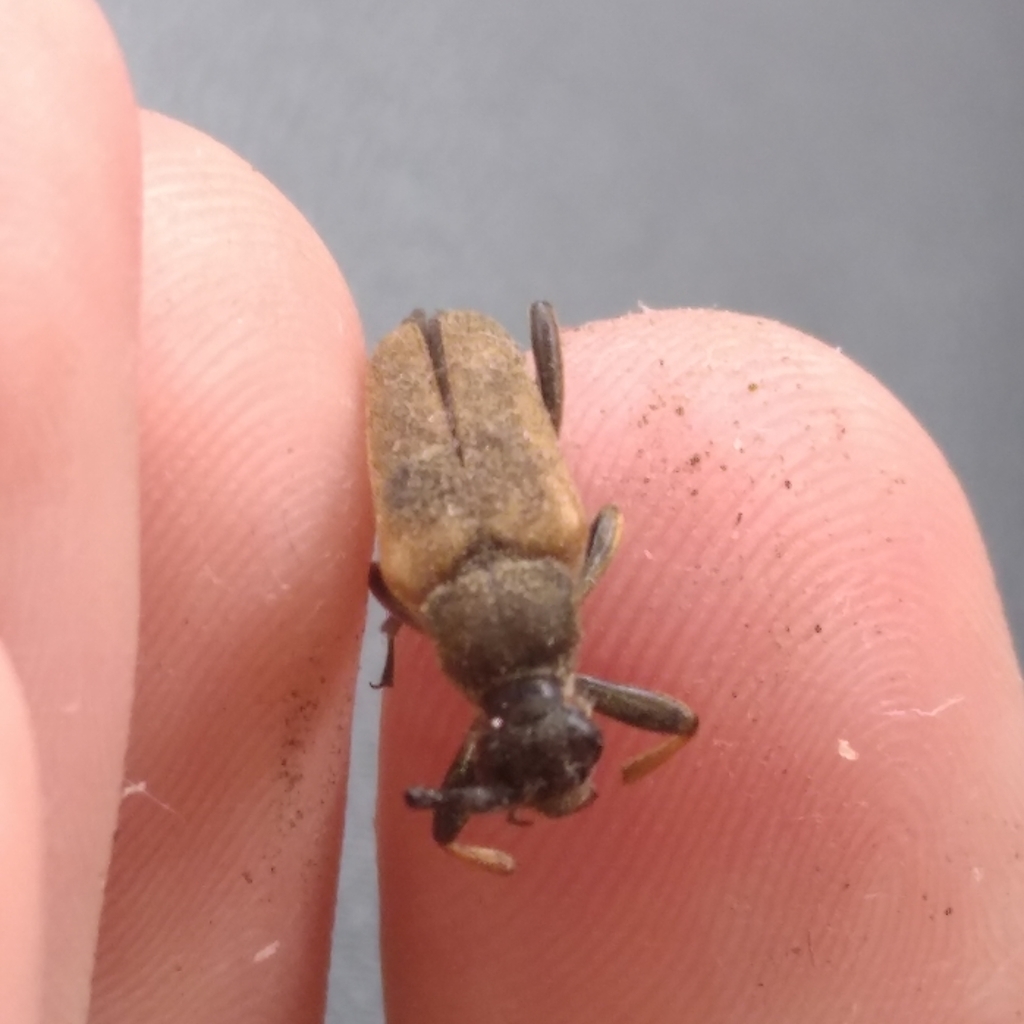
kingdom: Animalia
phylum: Arthropoda
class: Insecta
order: Coleoptera
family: Cerambycidae
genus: Stictoleptura
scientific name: Stictoleptura rubra
